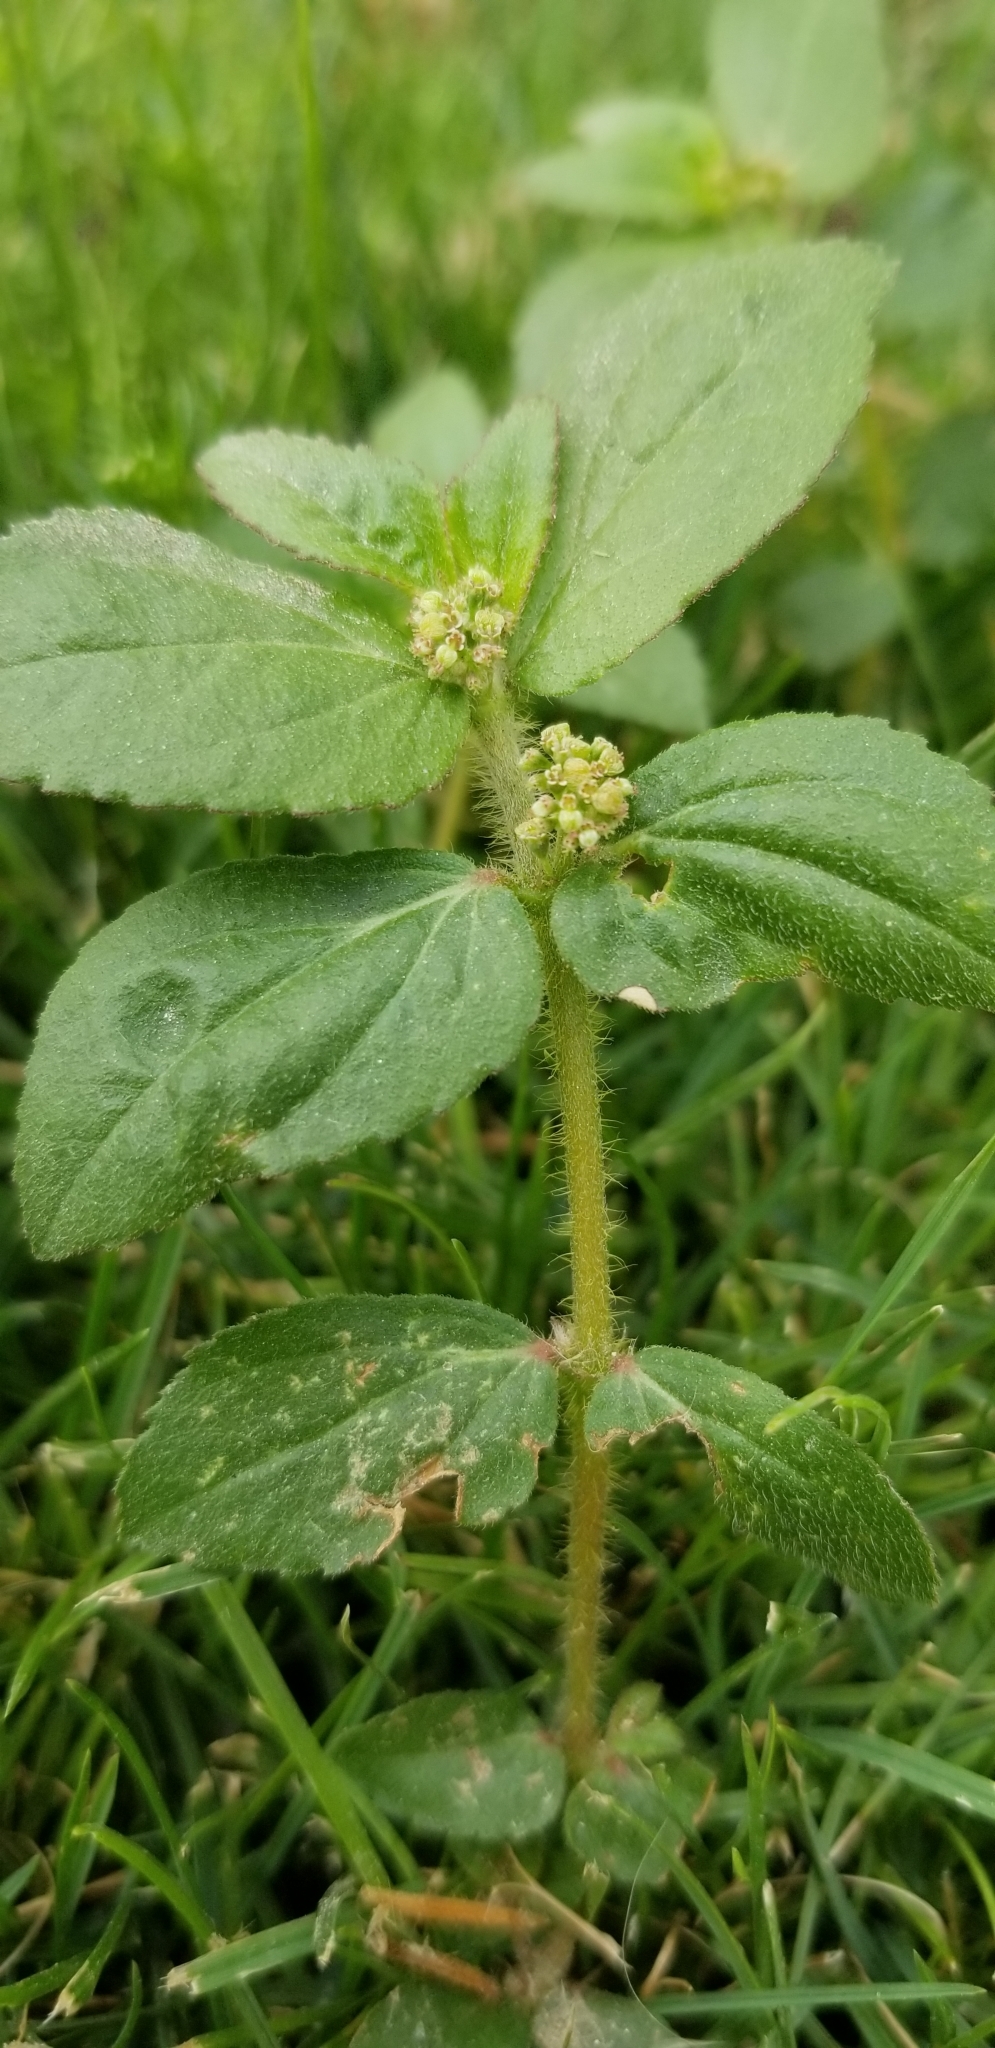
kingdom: Plantae
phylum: Tracheophyta
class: Magnoliopsida
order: Malpighiales
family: Euphorbiaceae
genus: Euphorbia
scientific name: Euphorbia hirta
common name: Pillpod sandmat
